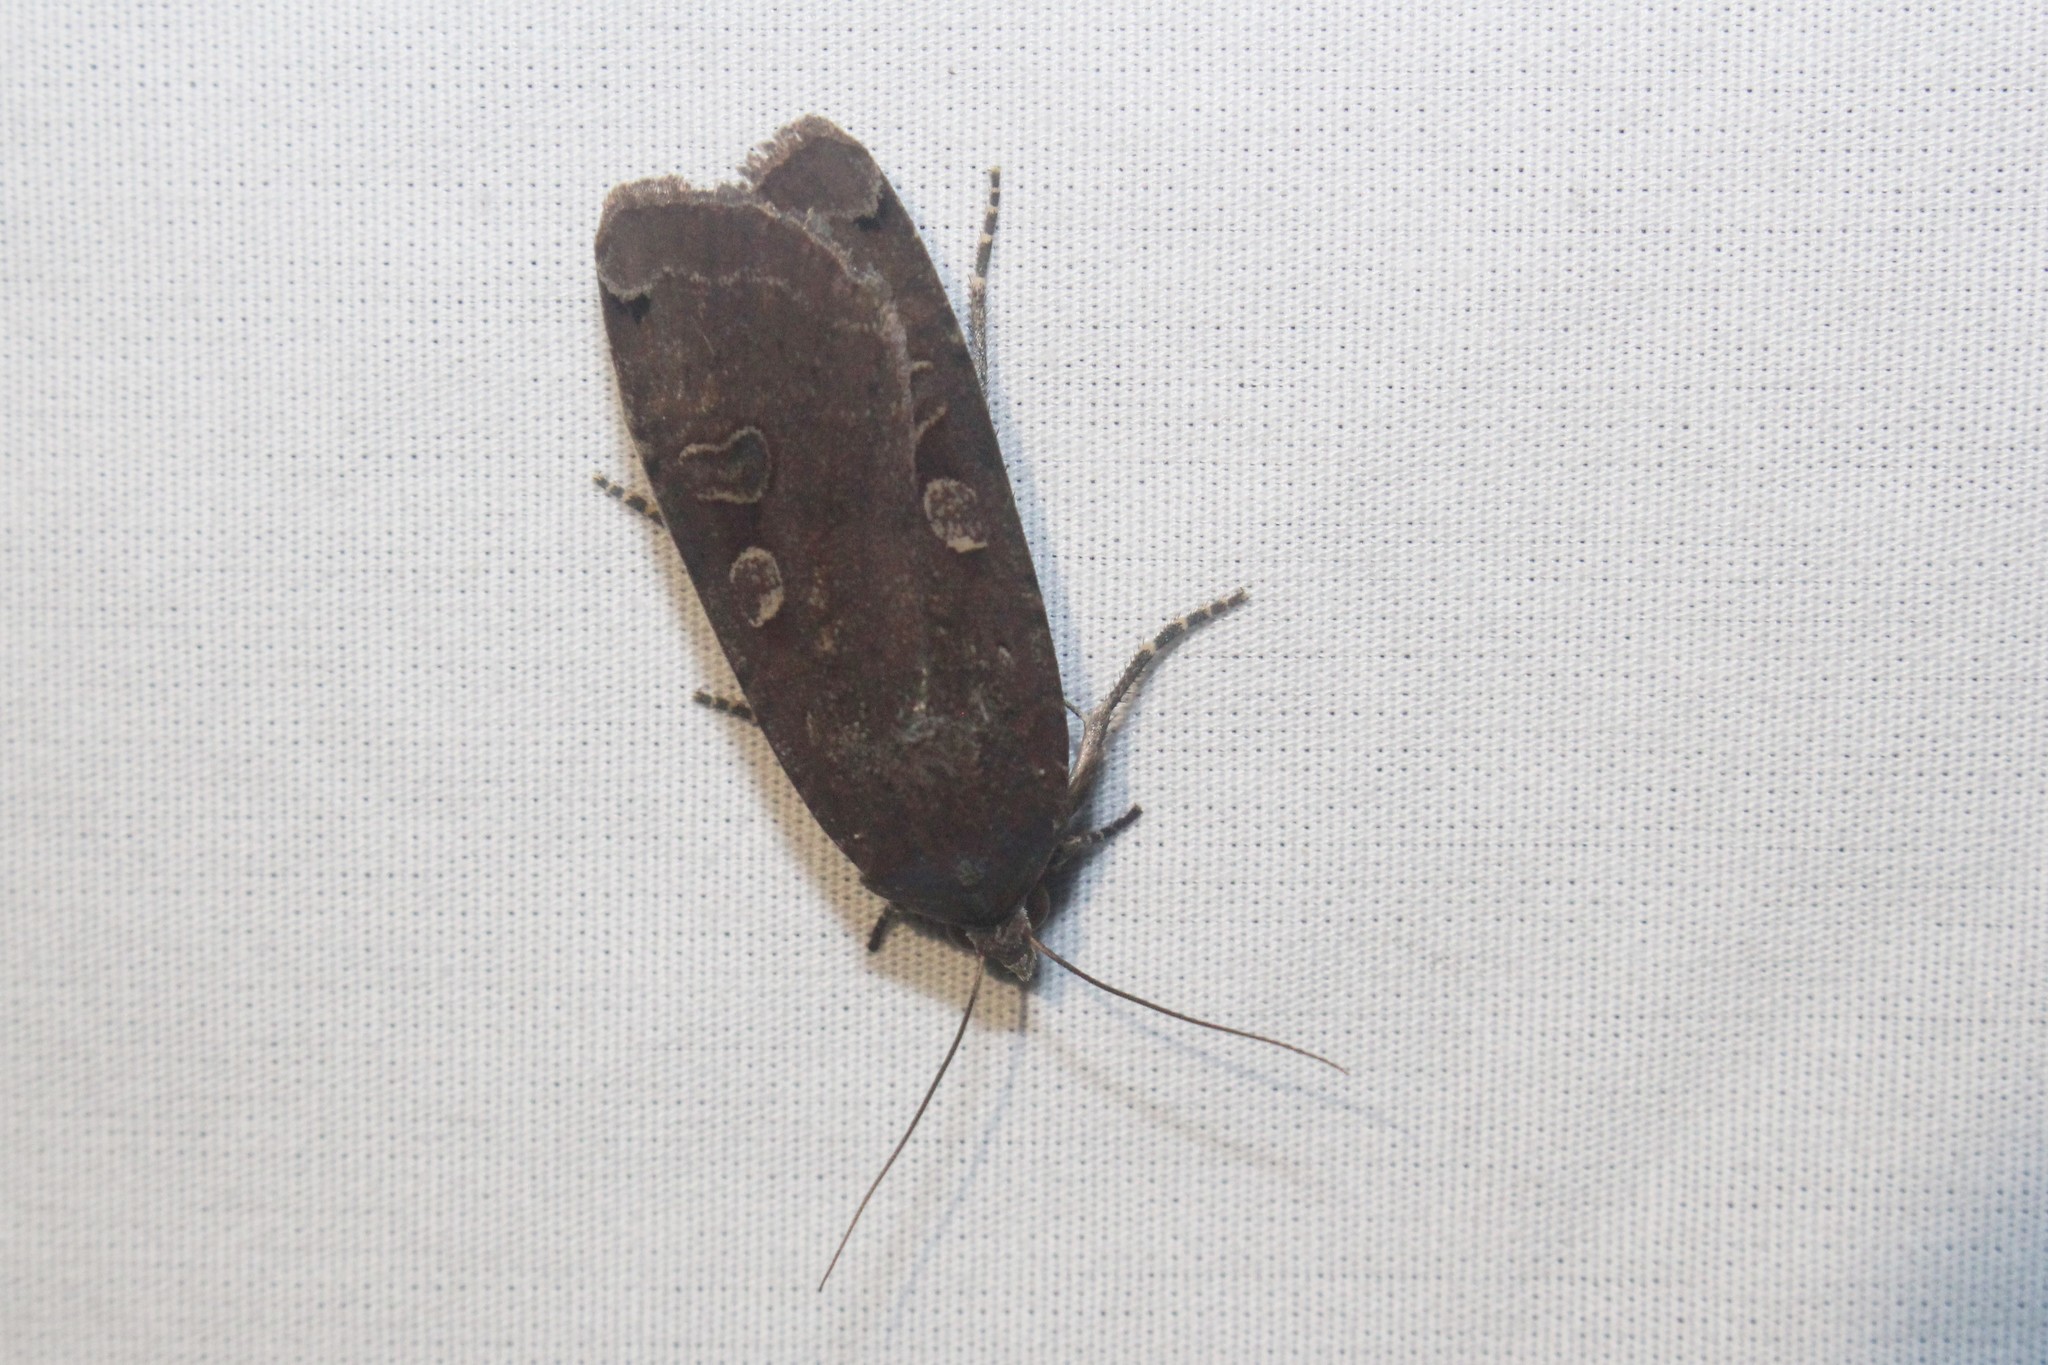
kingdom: Animalia
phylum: Arthropoda
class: Insecta
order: Lepidoptera
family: Noctuidae
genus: Noctua
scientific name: Noctua pronuba
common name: Large yellow underwing
